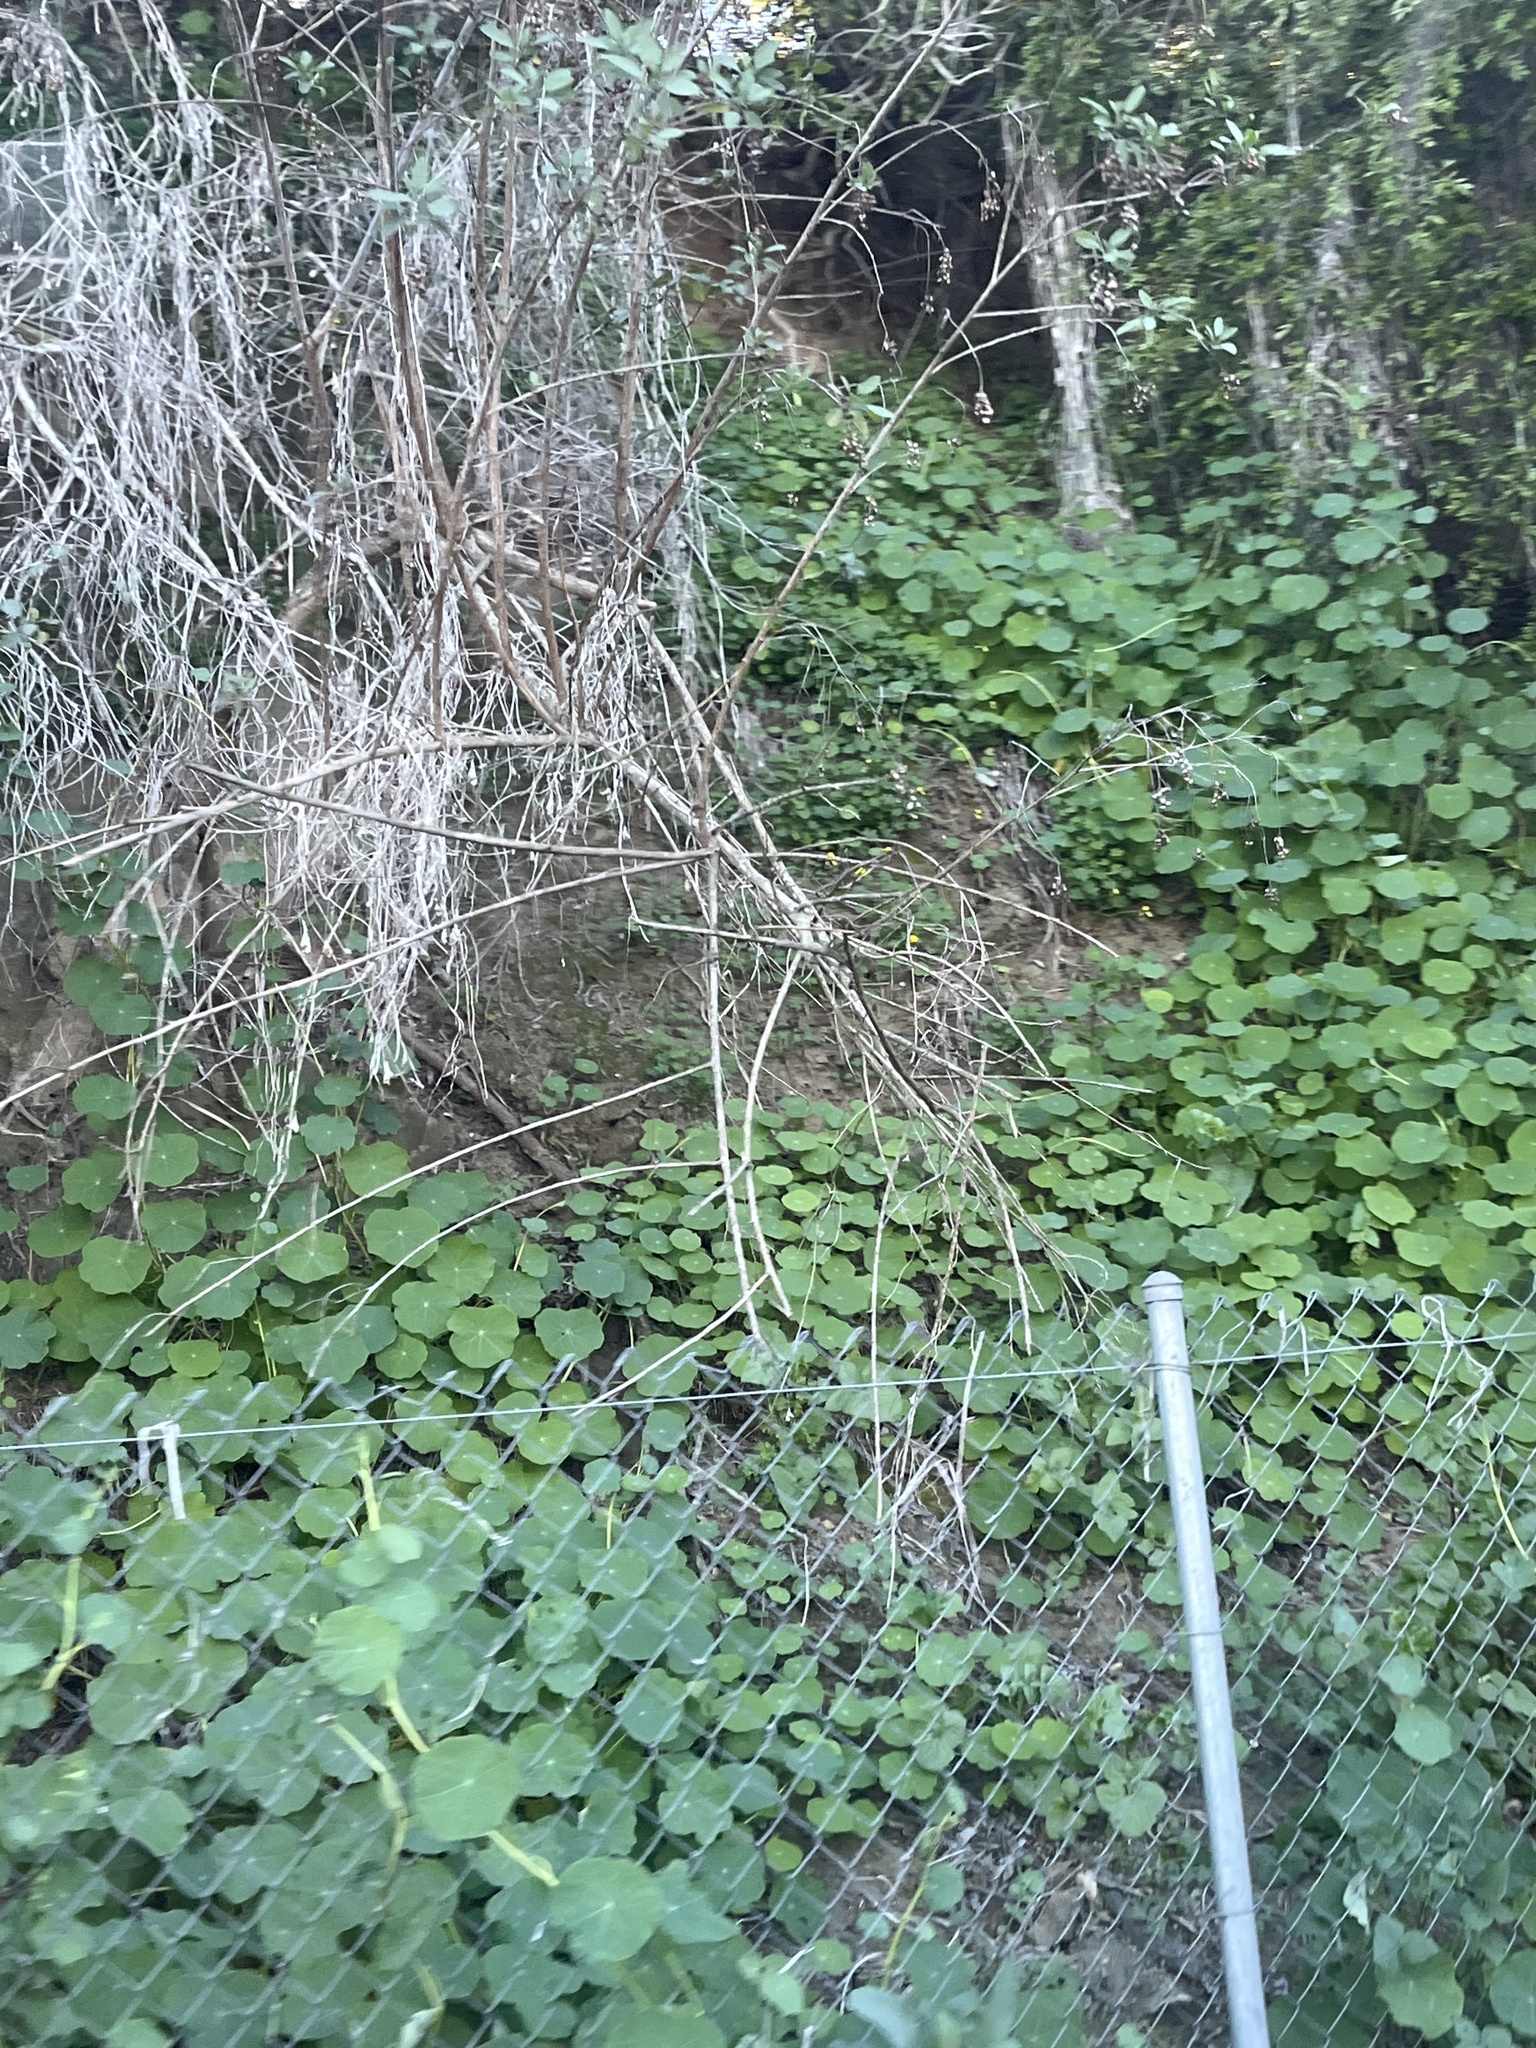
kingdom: Plantae
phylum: Tracheophyta
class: Magnoliopsida
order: Brassicales
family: Tropaeolaceae
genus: Tropaeolum
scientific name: Tropaeolum majus
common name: Nasturtium
